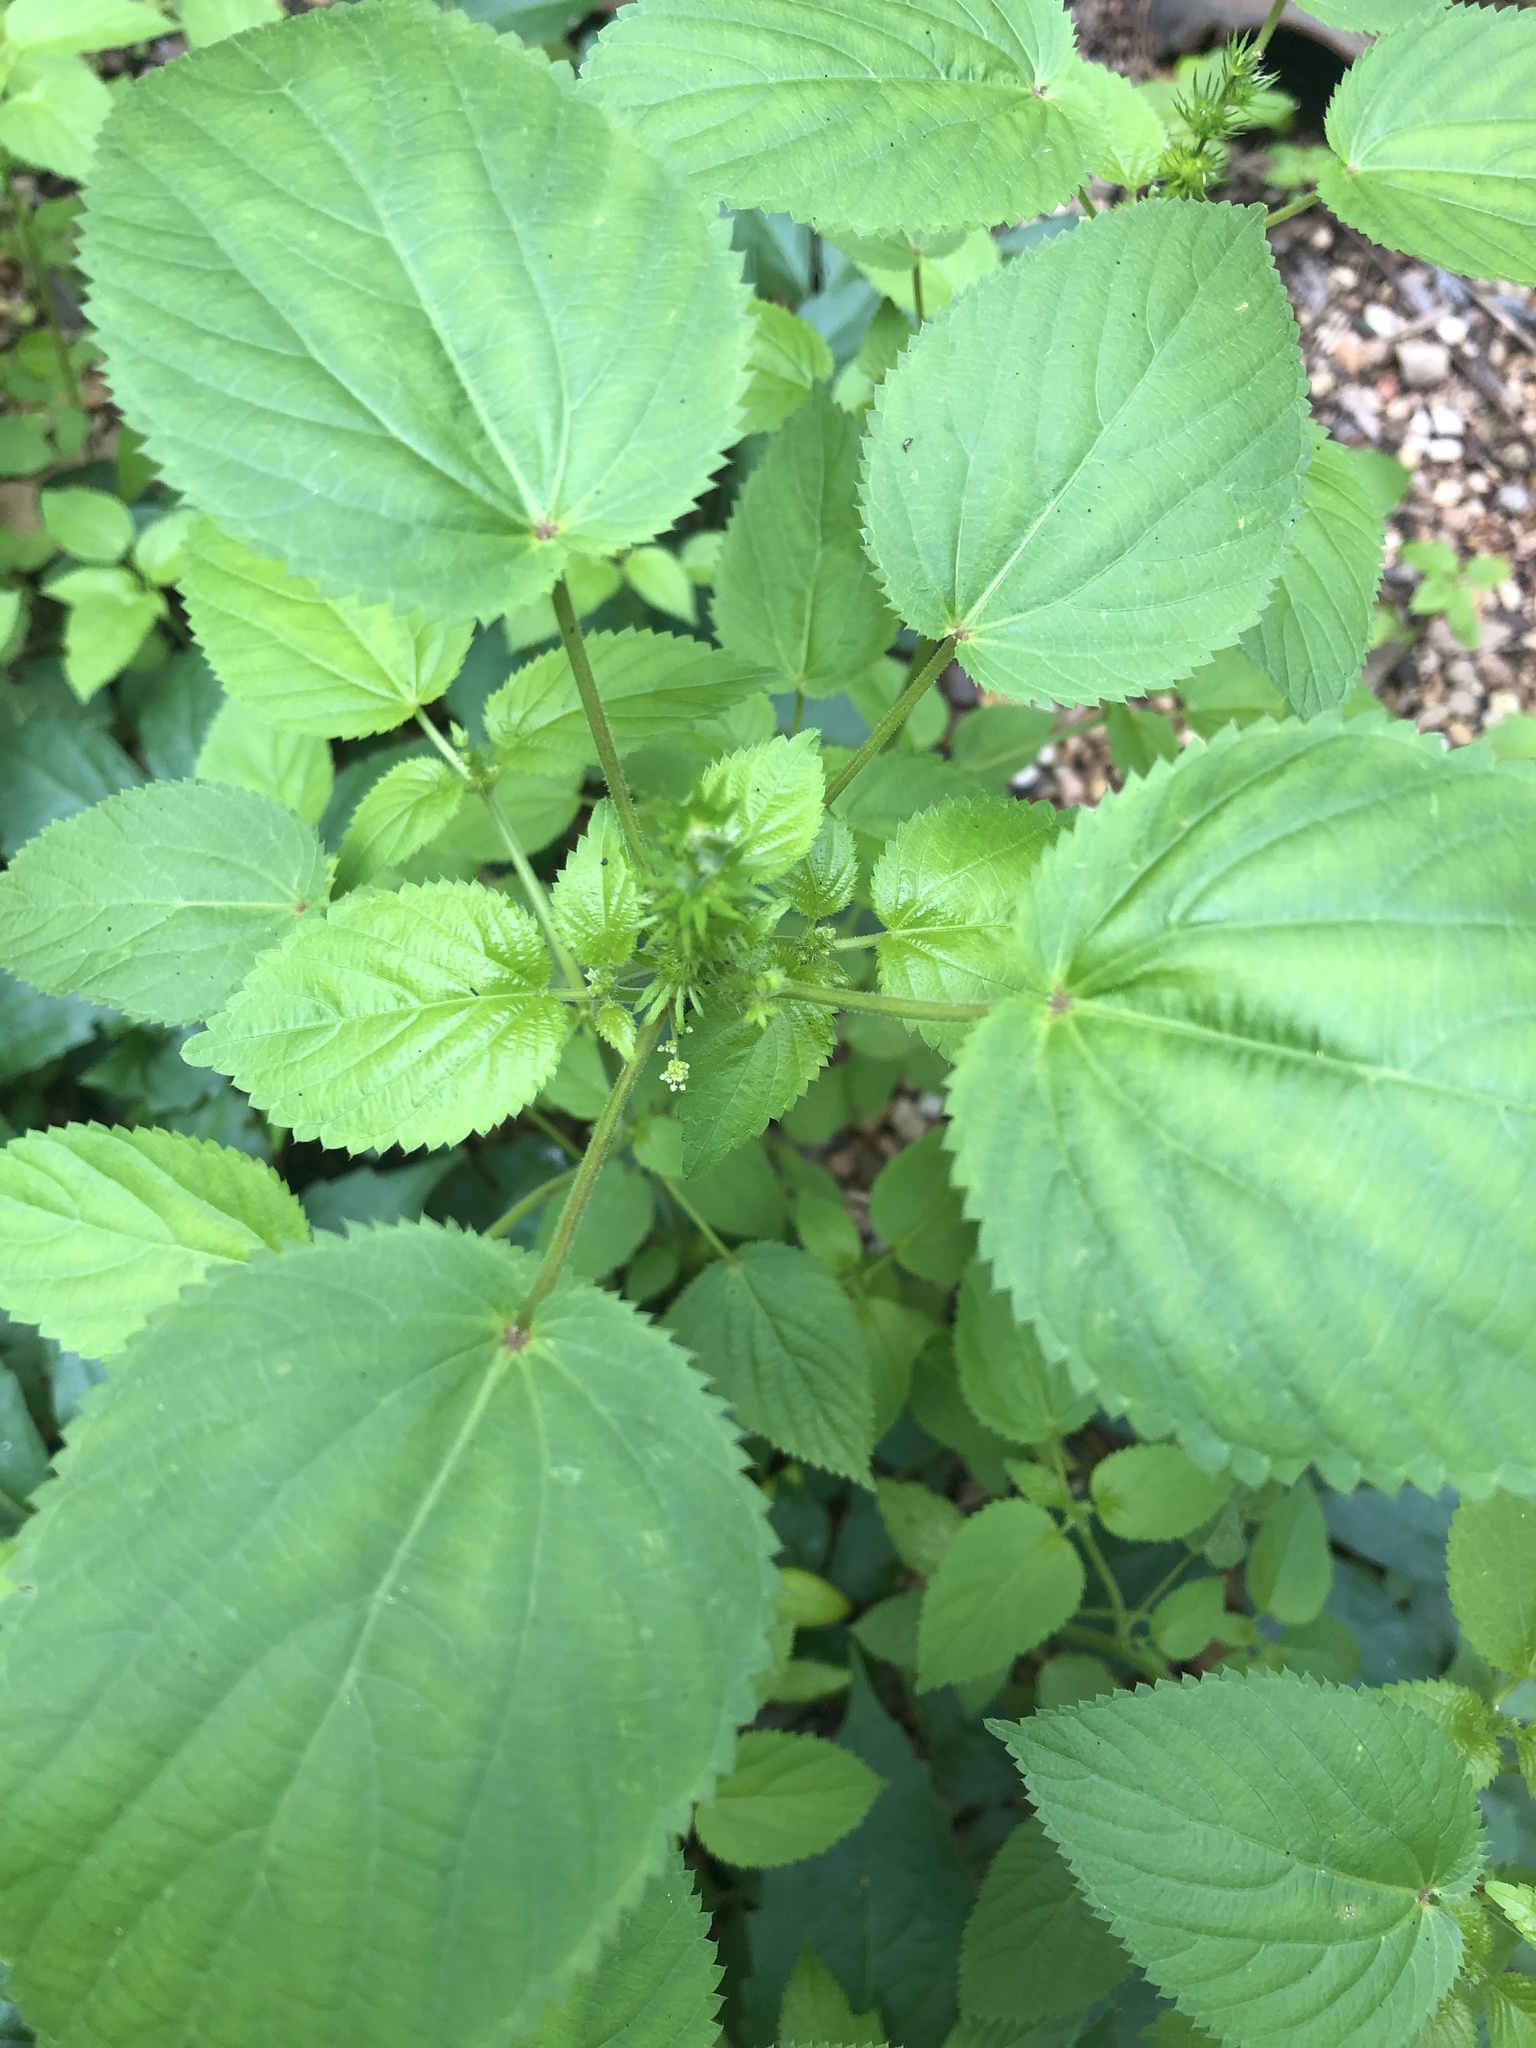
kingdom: Plantae
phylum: Tracheophyta
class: Magnoliopsida
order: Malpighiales
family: Euphorbiaceae
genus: Acalypha
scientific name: Acalypha ostryifolia
